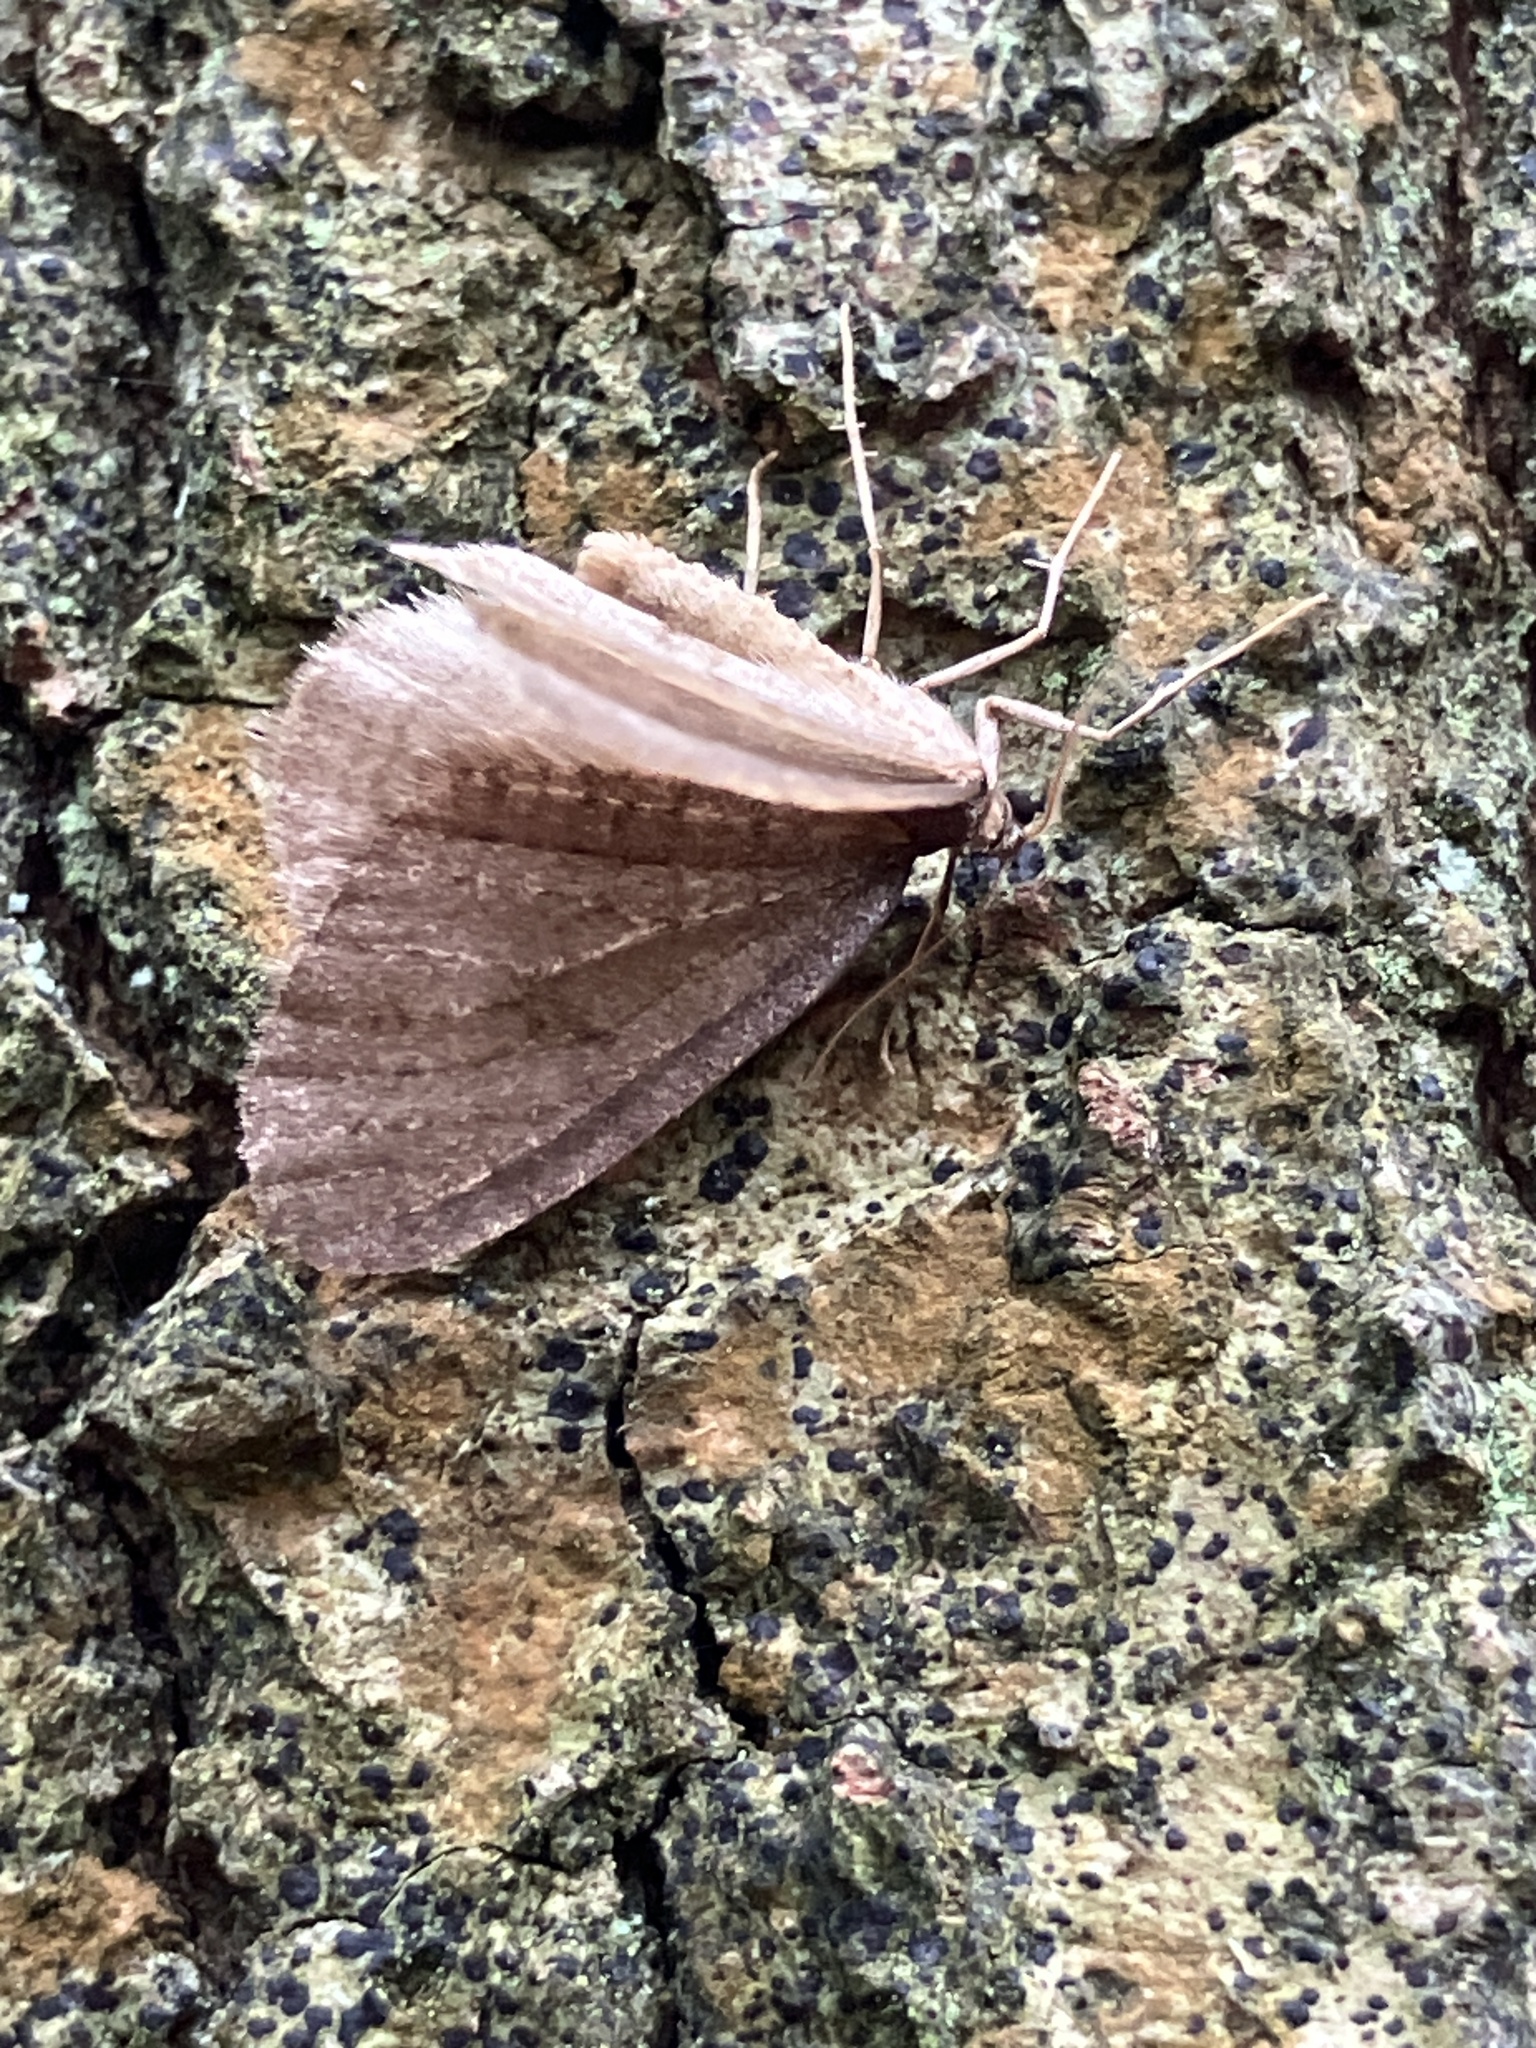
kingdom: Animalia
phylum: Arthropoda
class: Insecta
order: Lepidoptera
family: Geometridae
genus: Operophtera
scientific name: Operophtera brumata
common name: Winter moth
